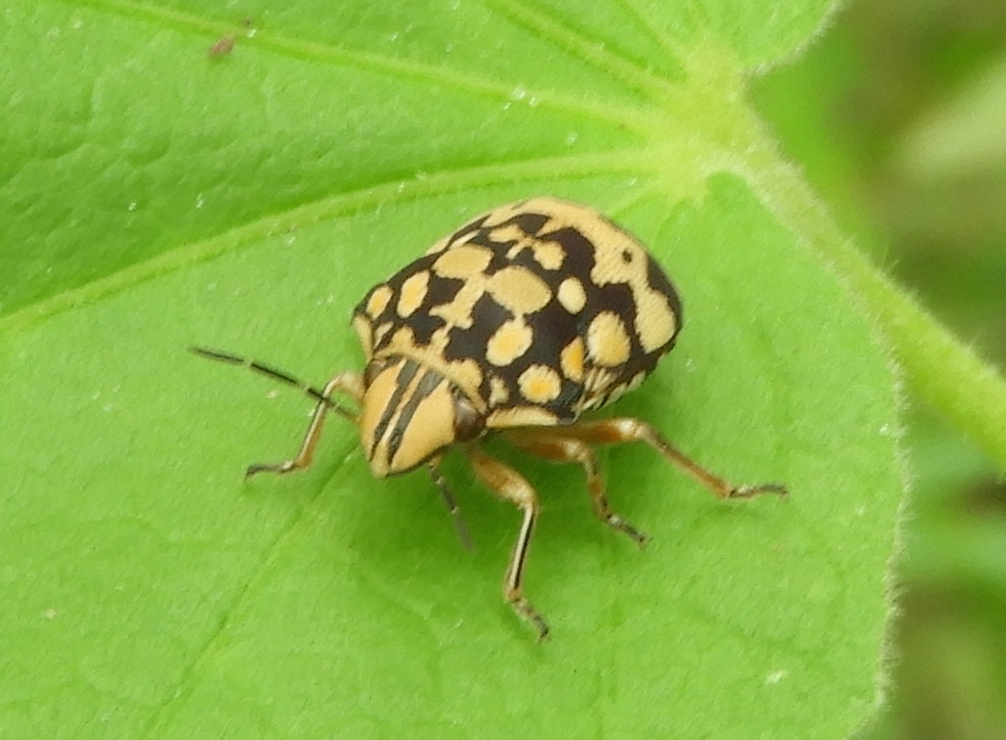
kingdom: Animalia
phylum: Arthropoda
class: Insecta
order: Hemiptera
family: Scutelleridae
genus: Orsilochides
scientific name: Orsilochides
